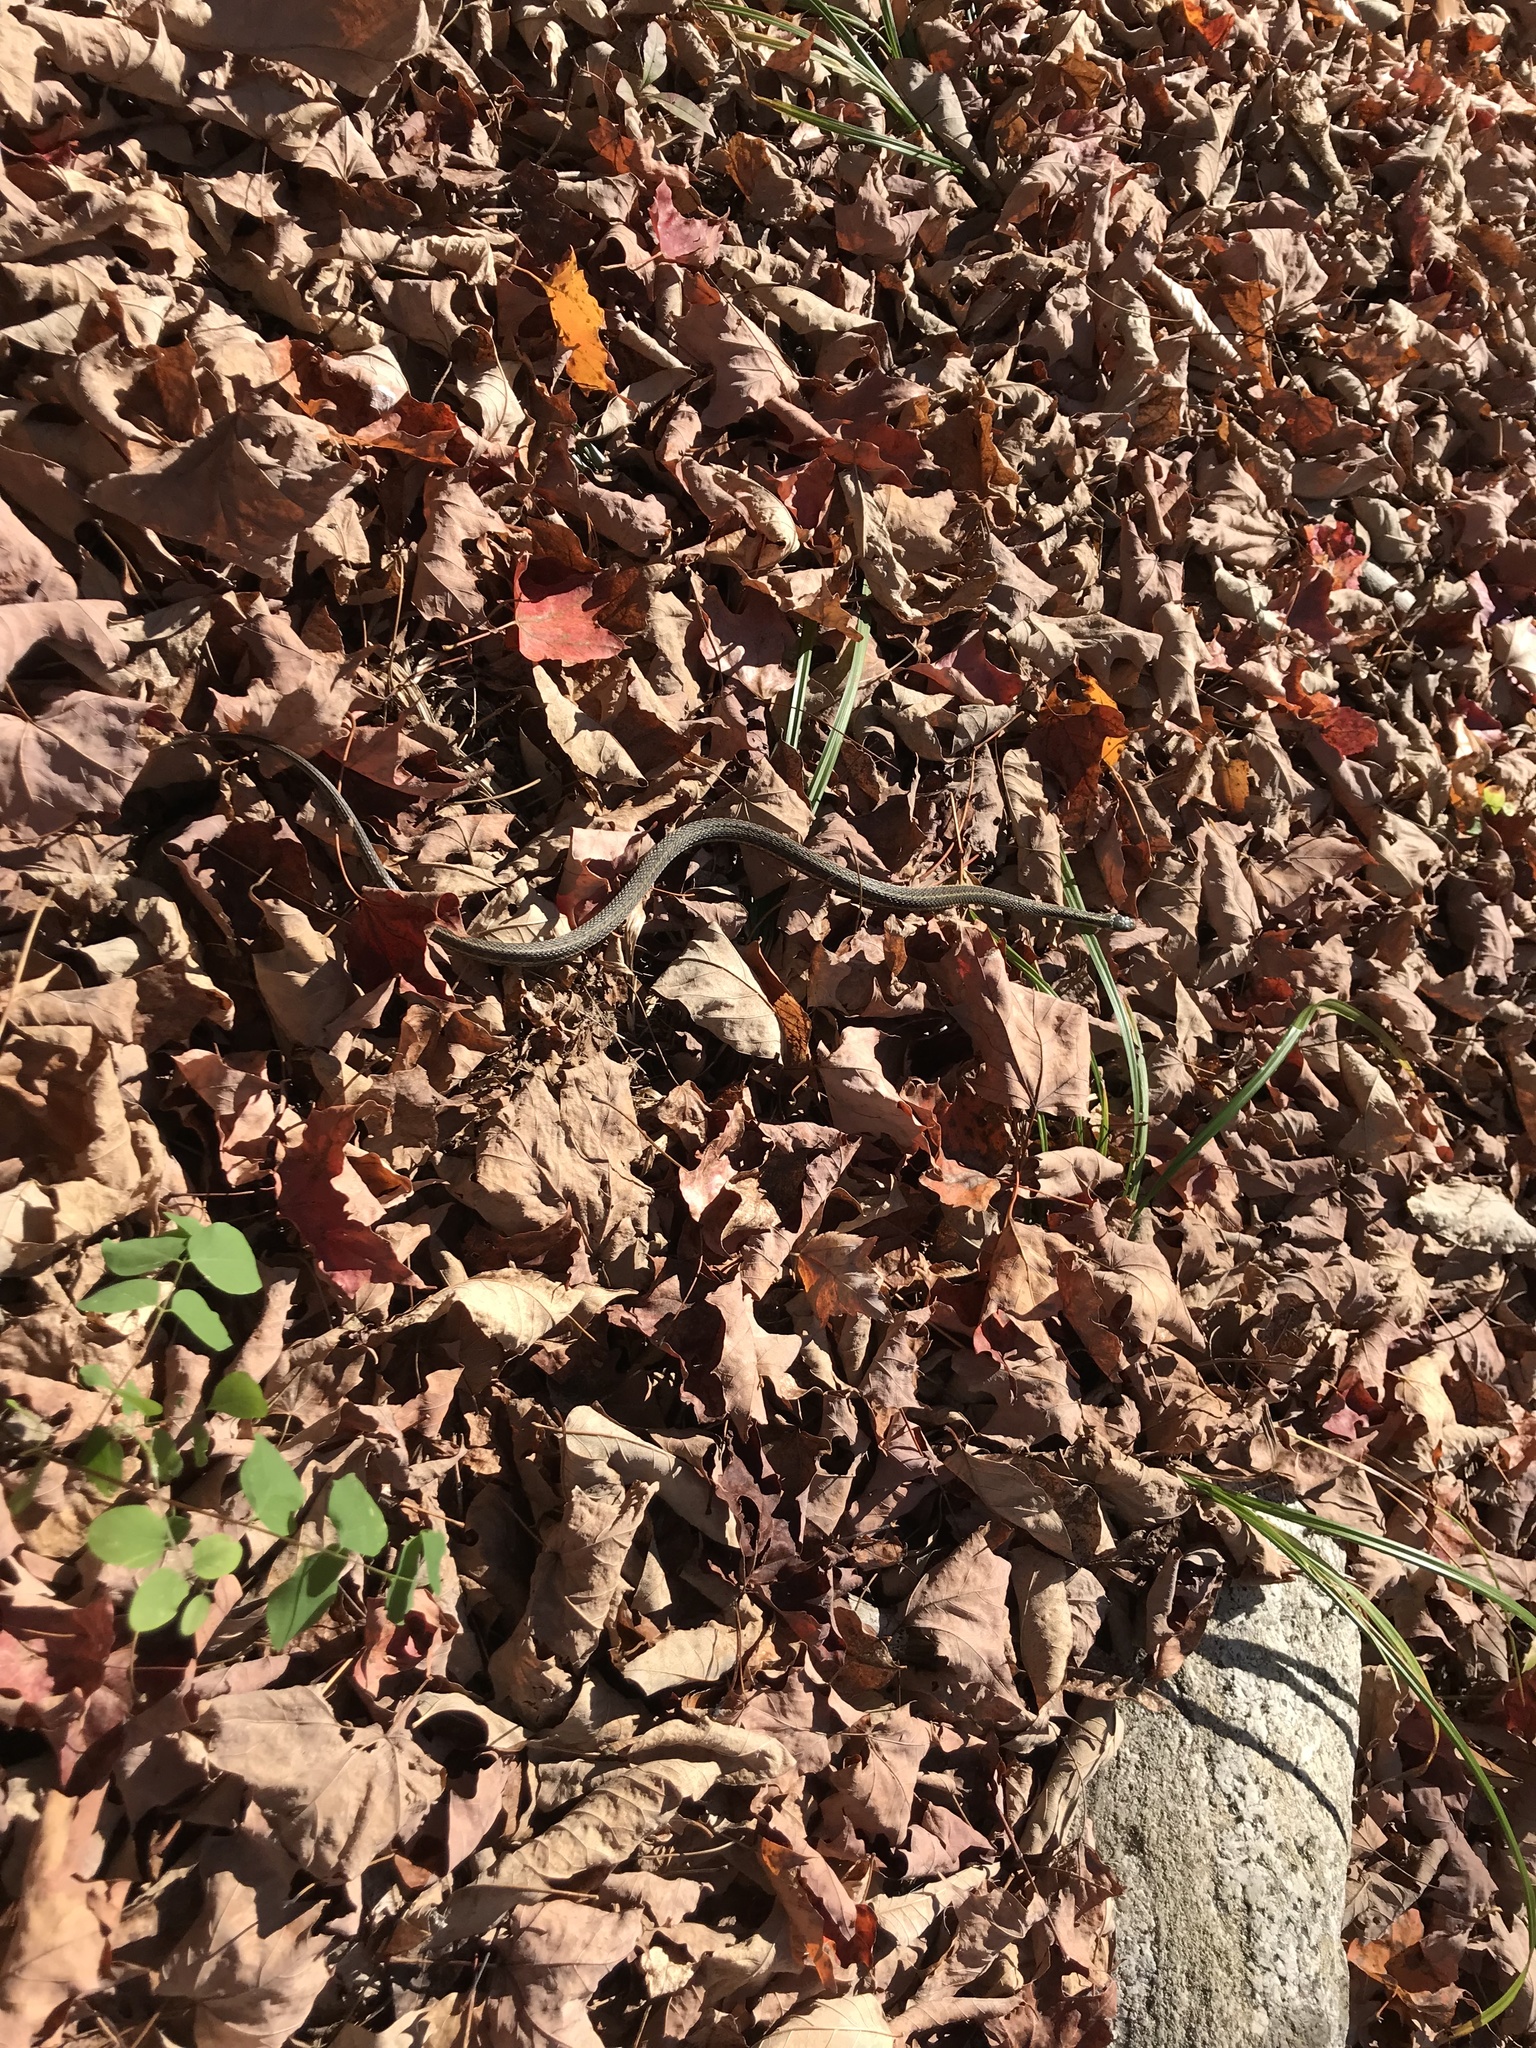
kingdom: Animalia
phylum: Chordata
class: Squamata
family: Colubridae
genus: Thamnophis
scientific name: Thamnophis sirtalis
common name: Common garter snake
